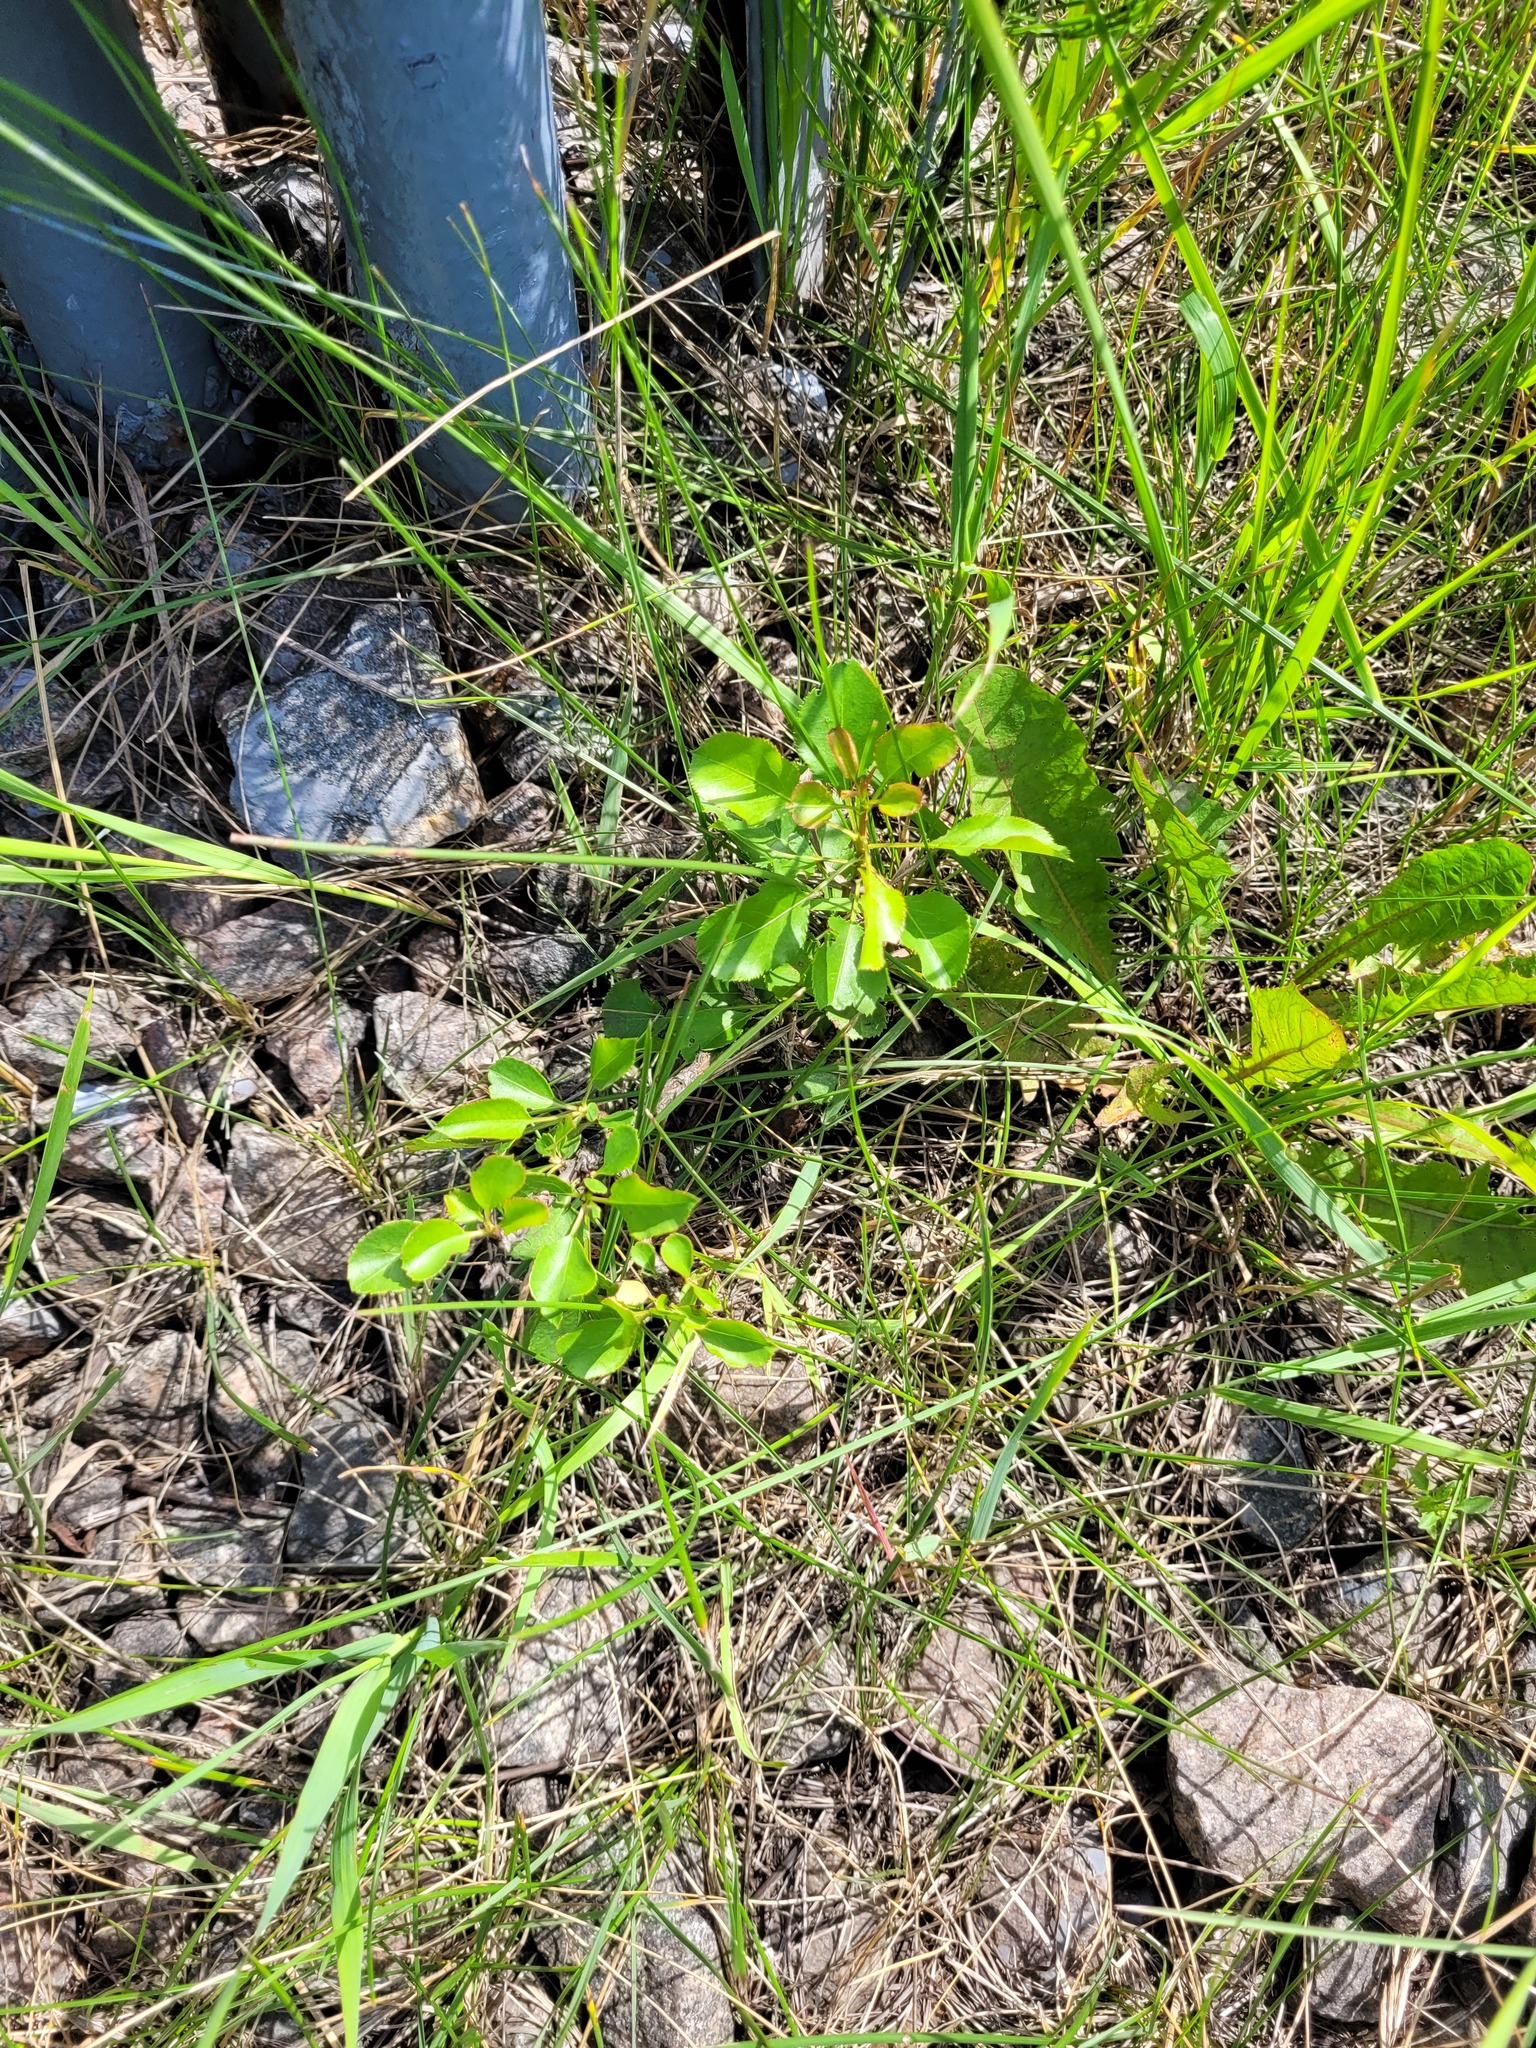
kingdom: Plantae
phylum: Tracheophyta
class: Magnoliopsida
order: Rosales
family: Rosaceae
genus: Pyrus
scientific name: Pyrus communis
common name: Pear
